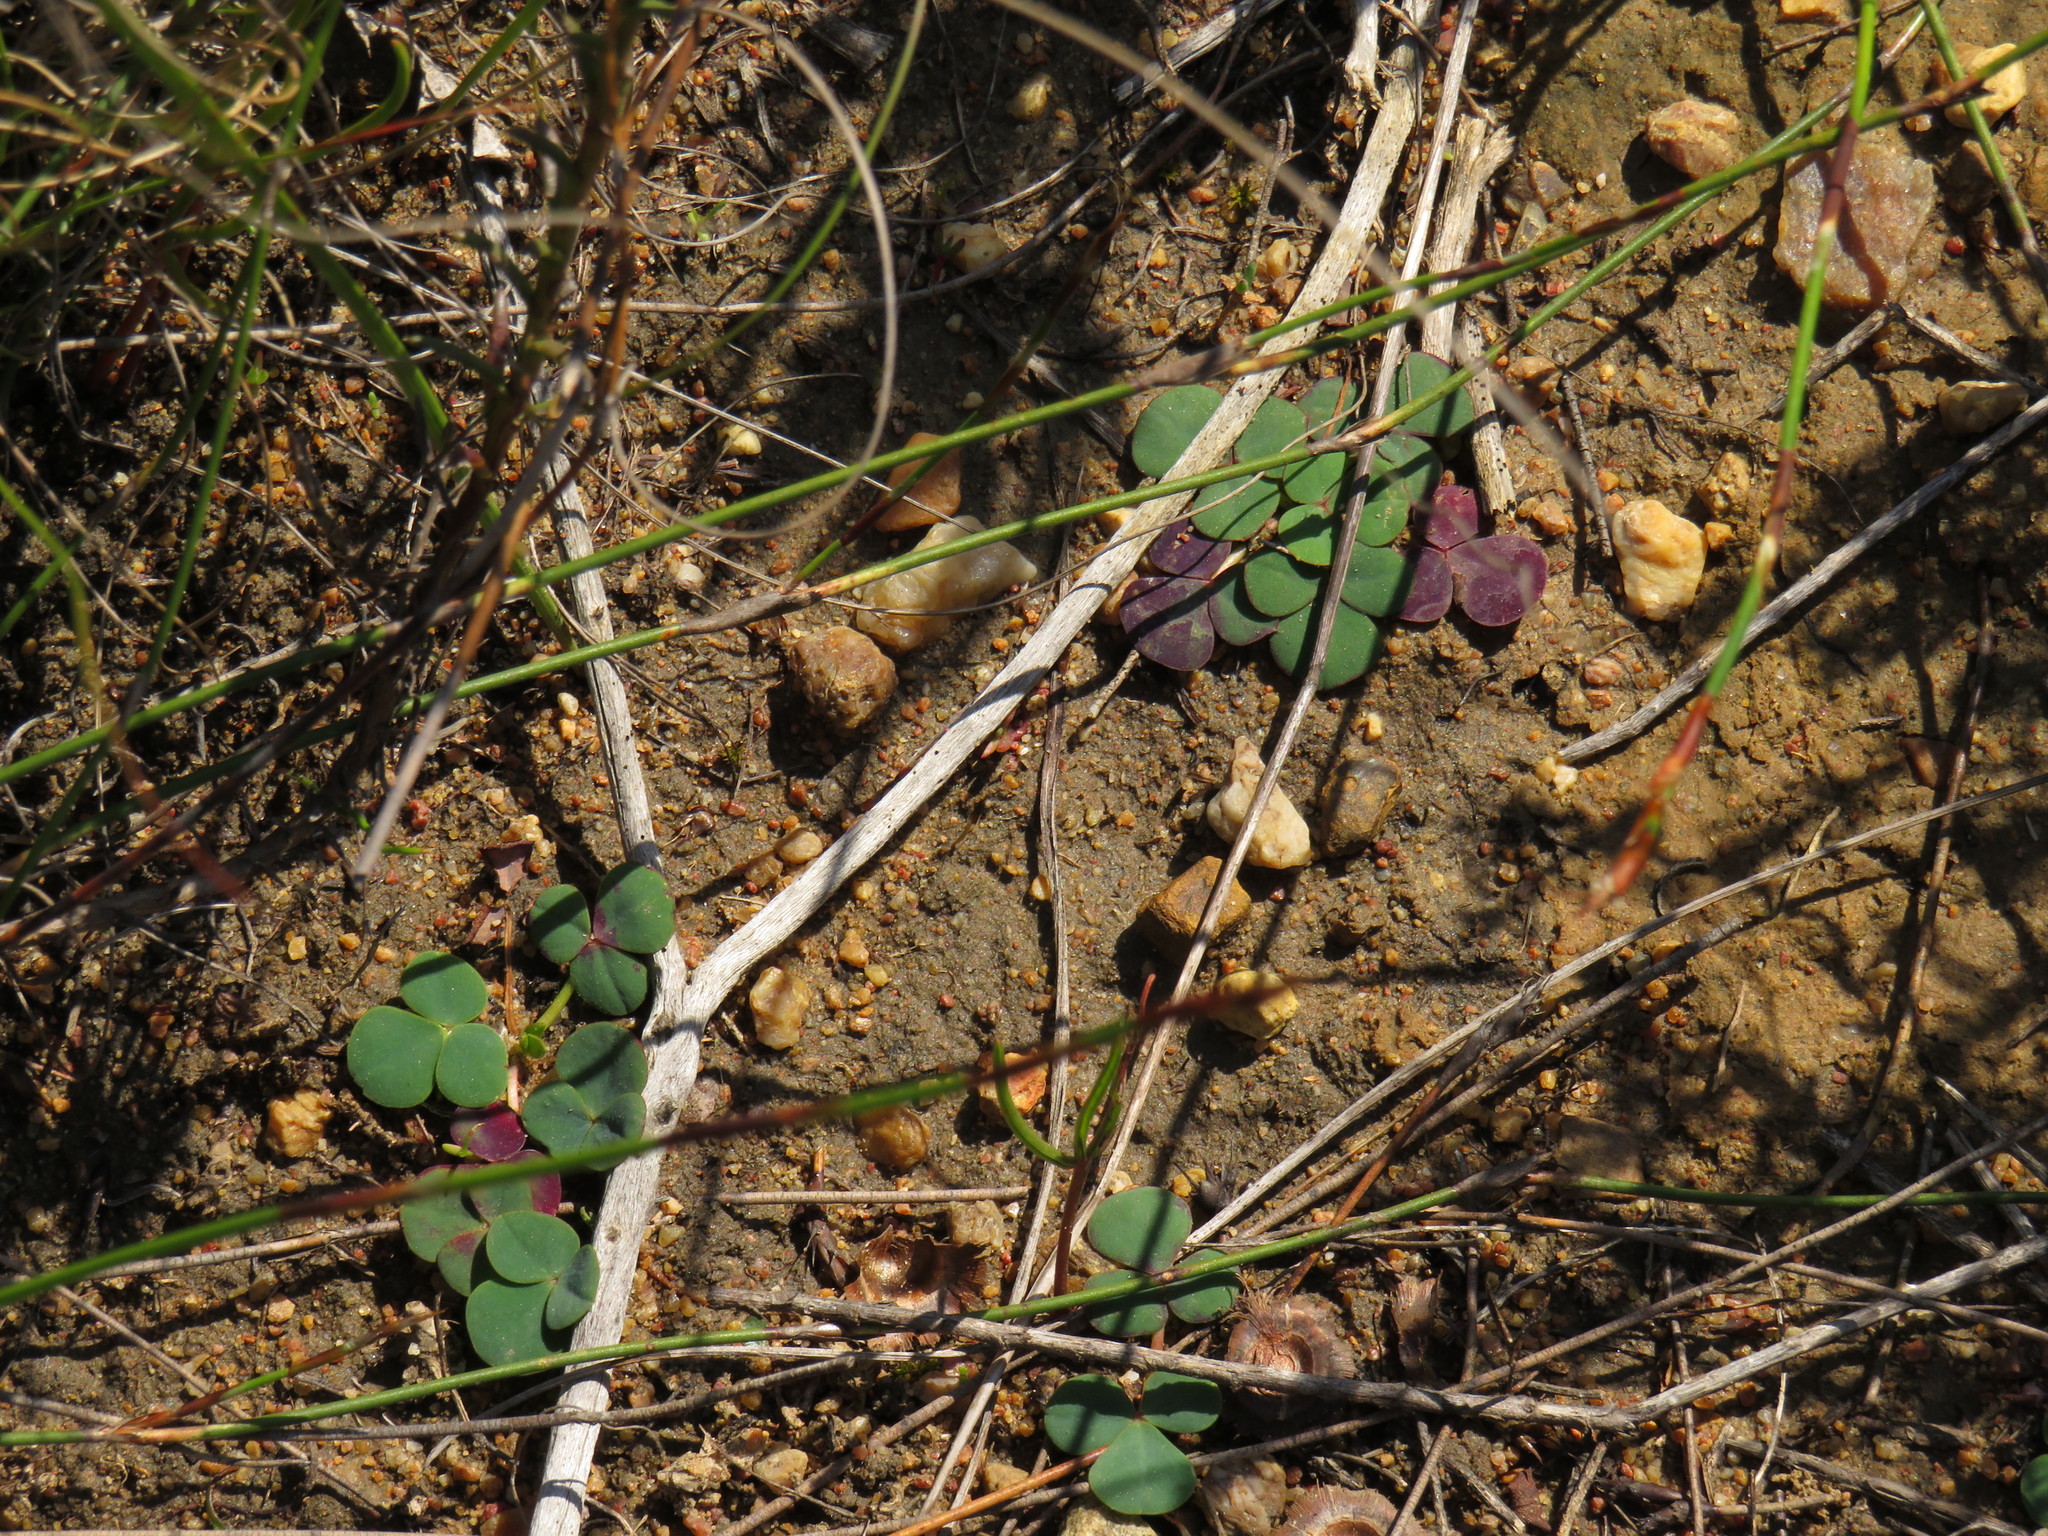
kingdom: Plantae
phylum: Tracheophyta
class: Magnoliopsida
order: Oxalidales
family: Oxalidaceae
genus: Oxalis
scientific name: Oxalis purpurea
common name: Purple woodsorrel
